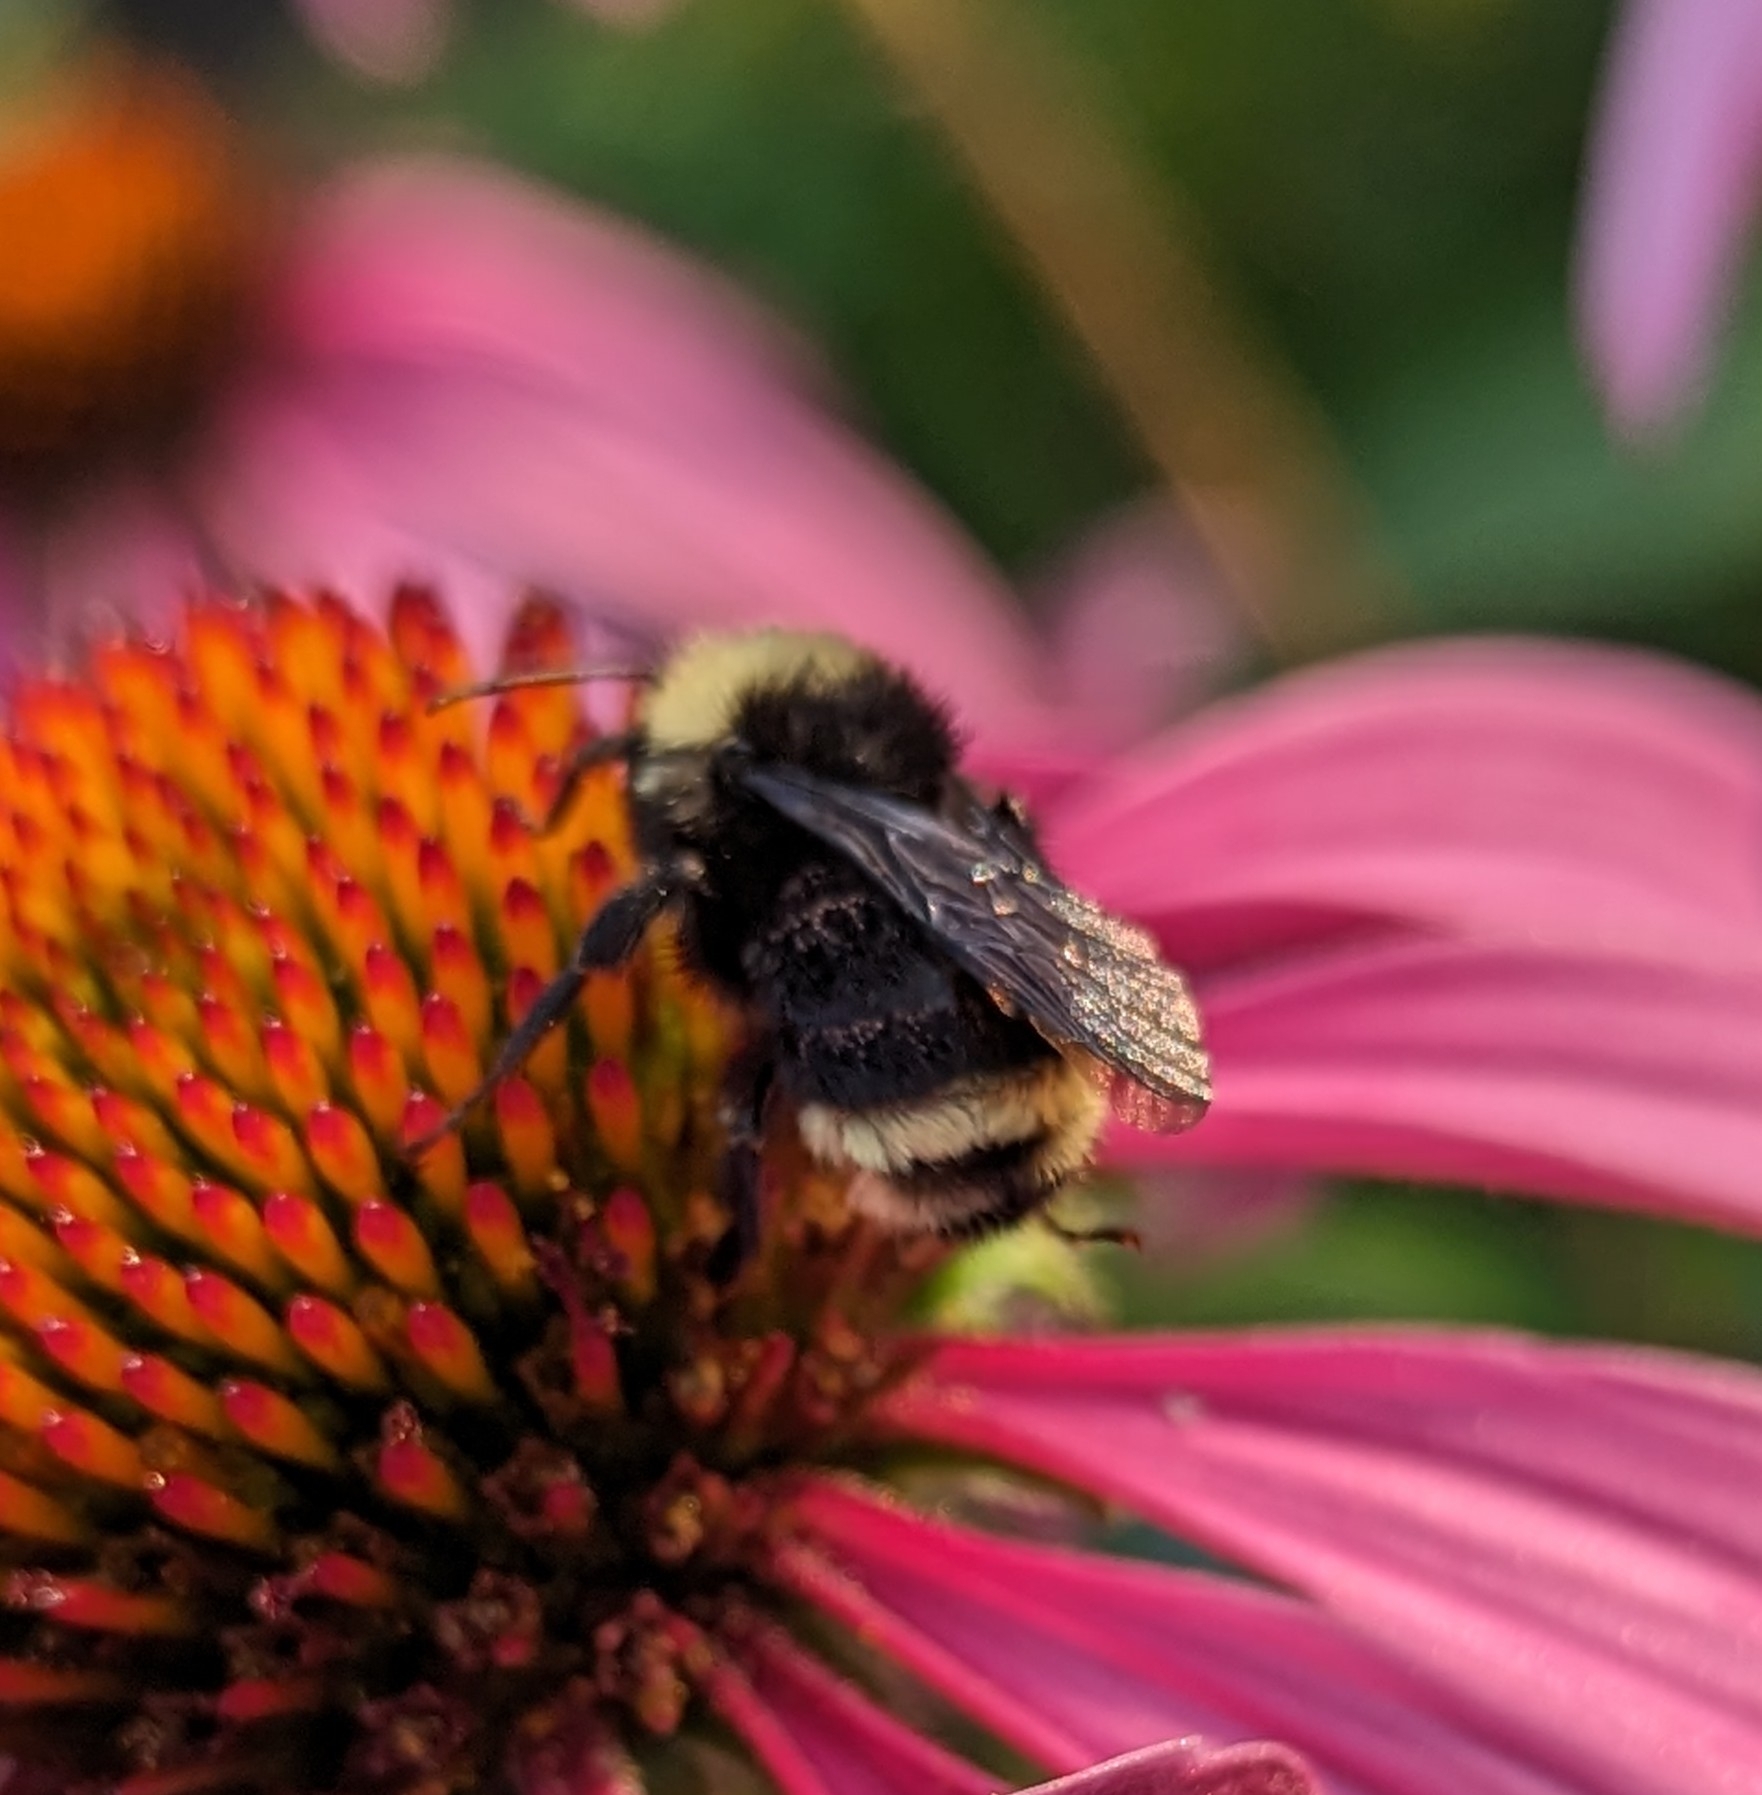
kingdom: Animalia
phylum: Arthropoda
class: Insecta
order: Hymenoptera
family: Apidae
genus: Bombus
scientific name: Bombus vosnesenskii
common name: Vosnesensky bumble bee
